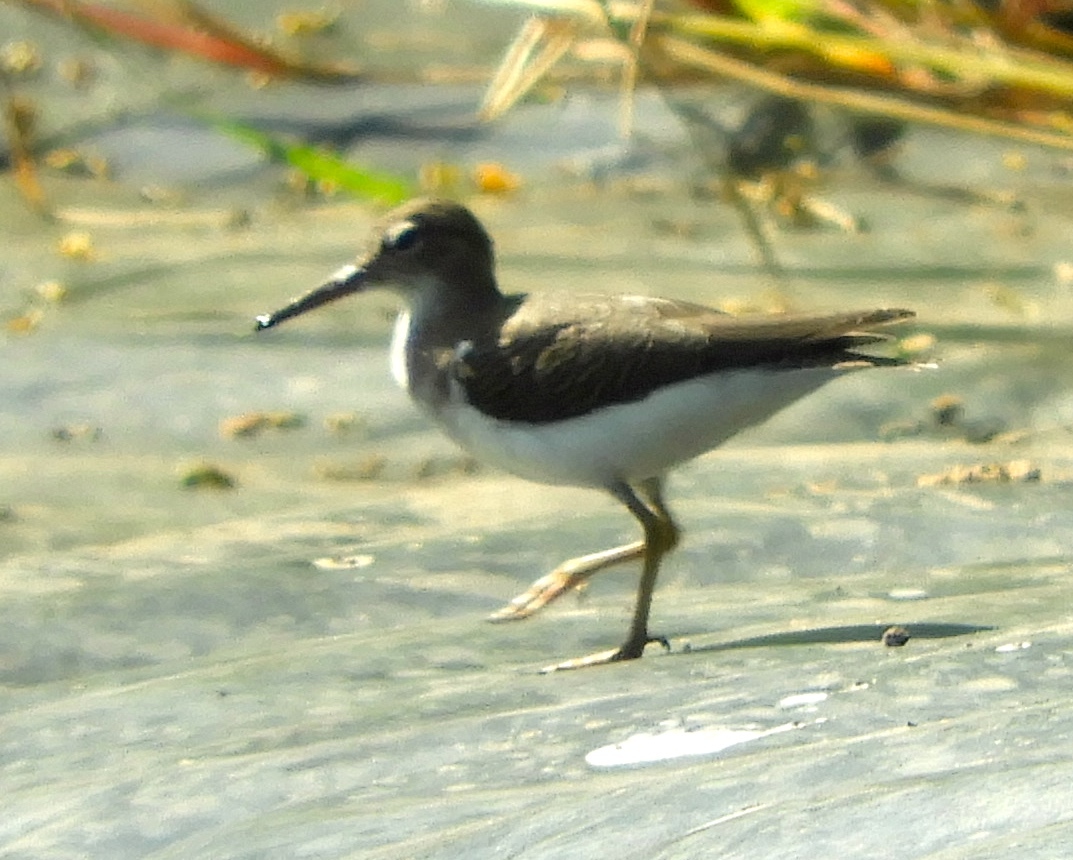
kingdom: Animalia
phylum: Chordata
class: Aves
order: Charadriiformes
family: Scolopacidae
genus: Actitis
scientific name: Actitis macularius
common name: Spotted sandpiper
